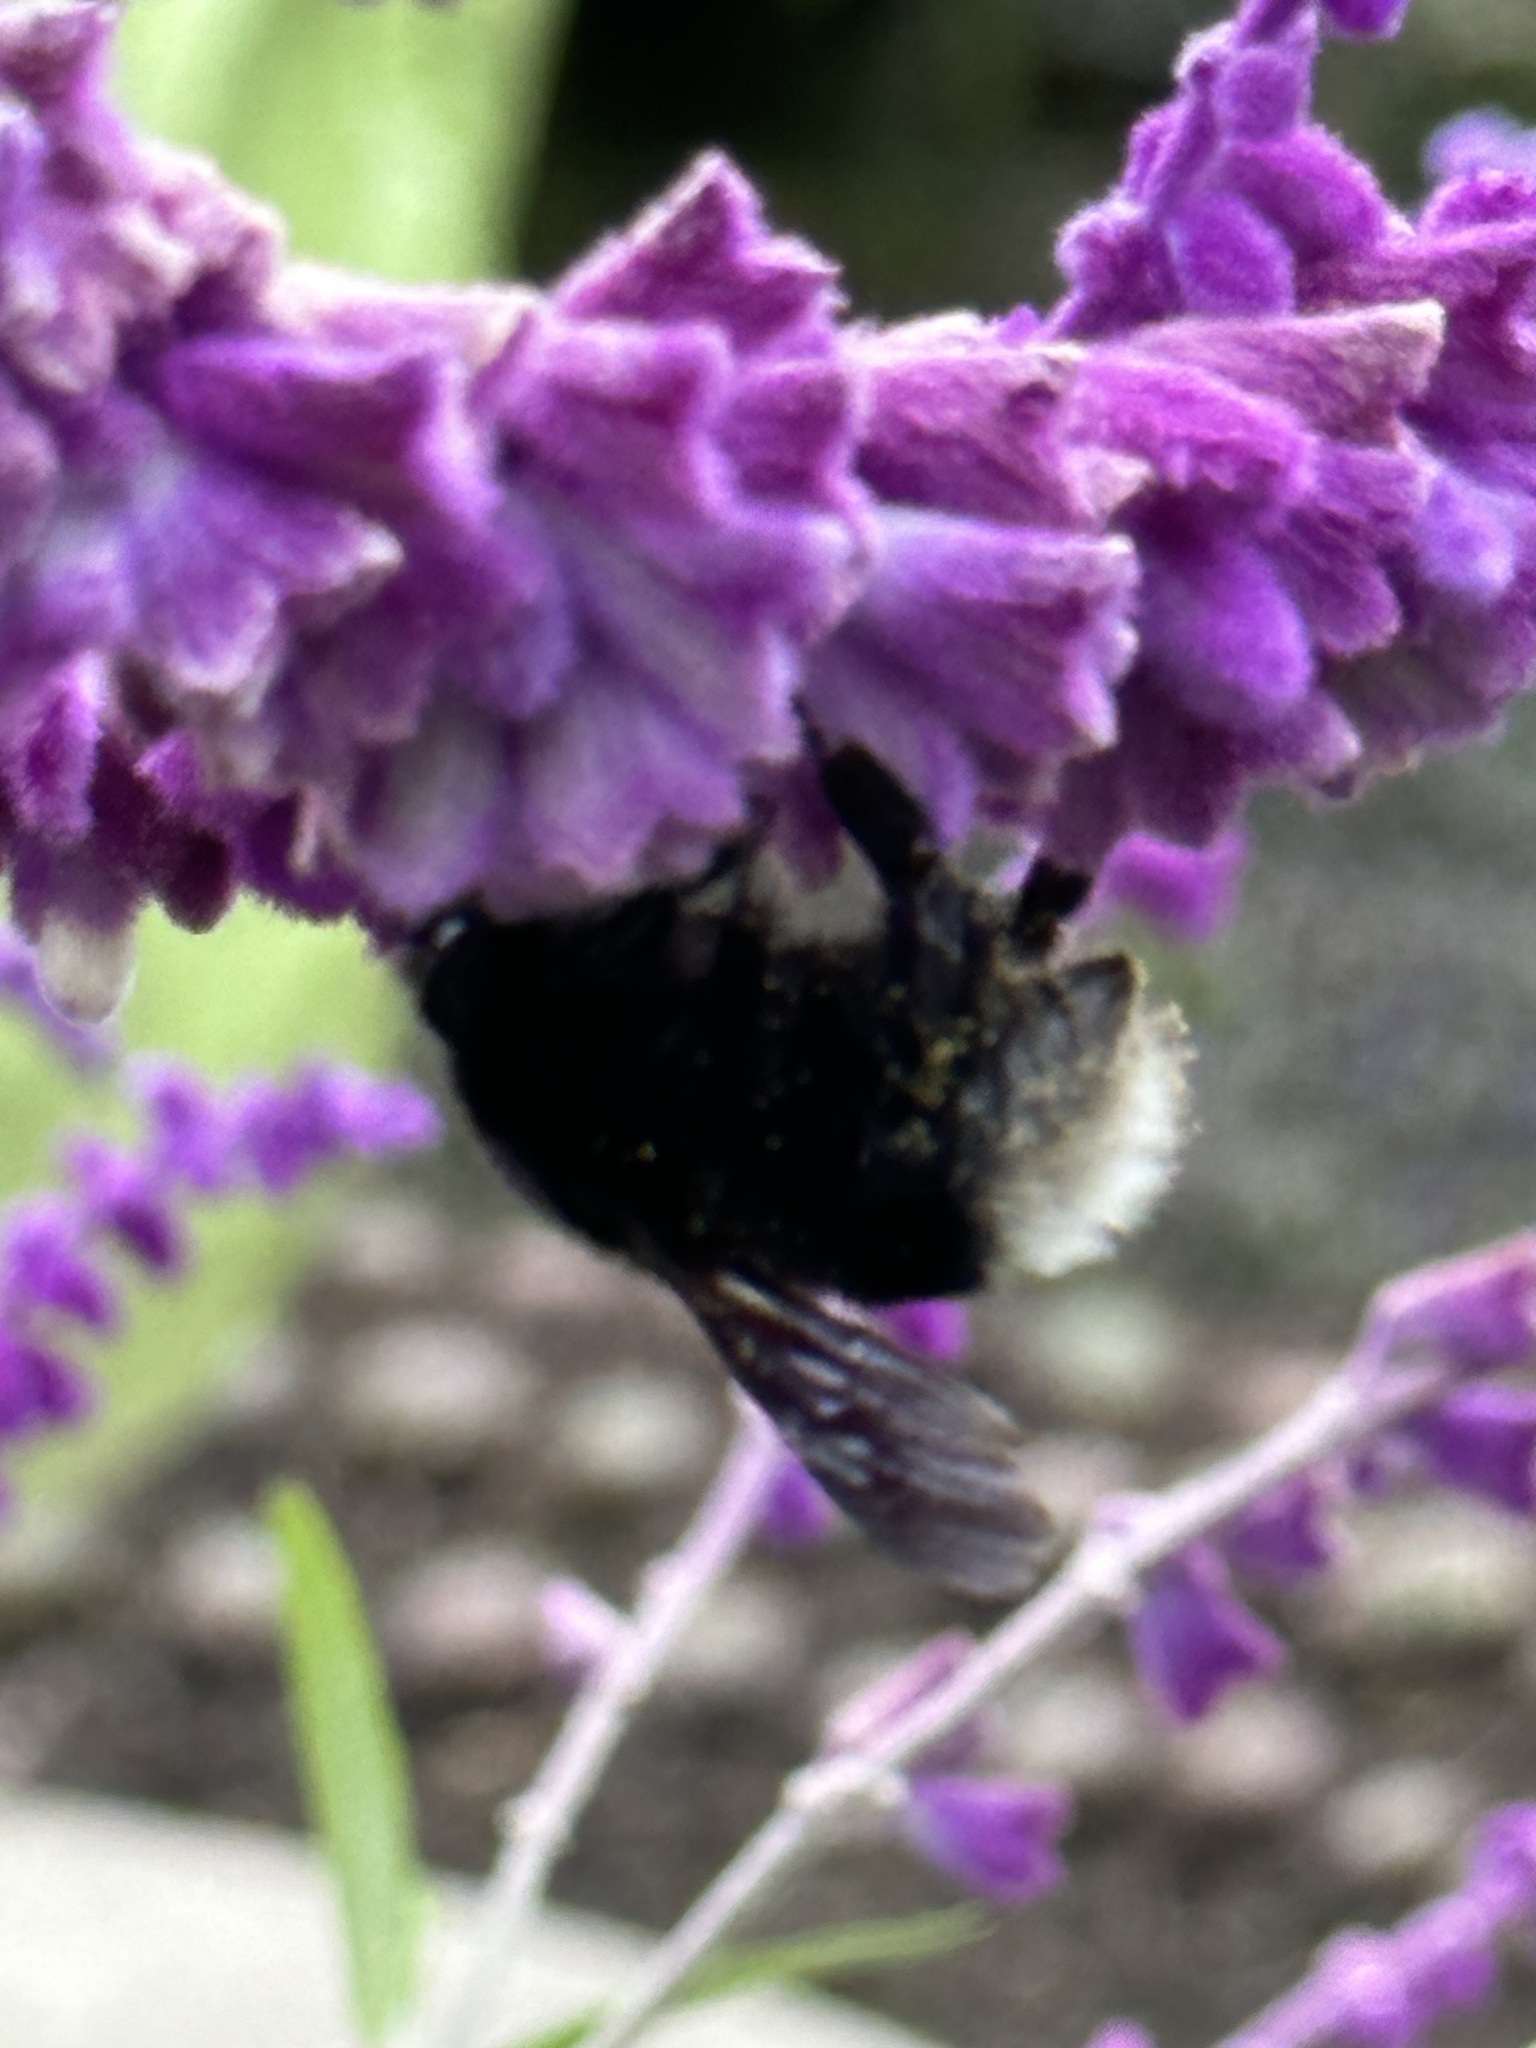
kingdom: Animalia
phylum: Arthropoda
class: Insecta
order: Hymenoptera
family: Apidae
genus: Bombus
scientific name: Bombus volucelloides
